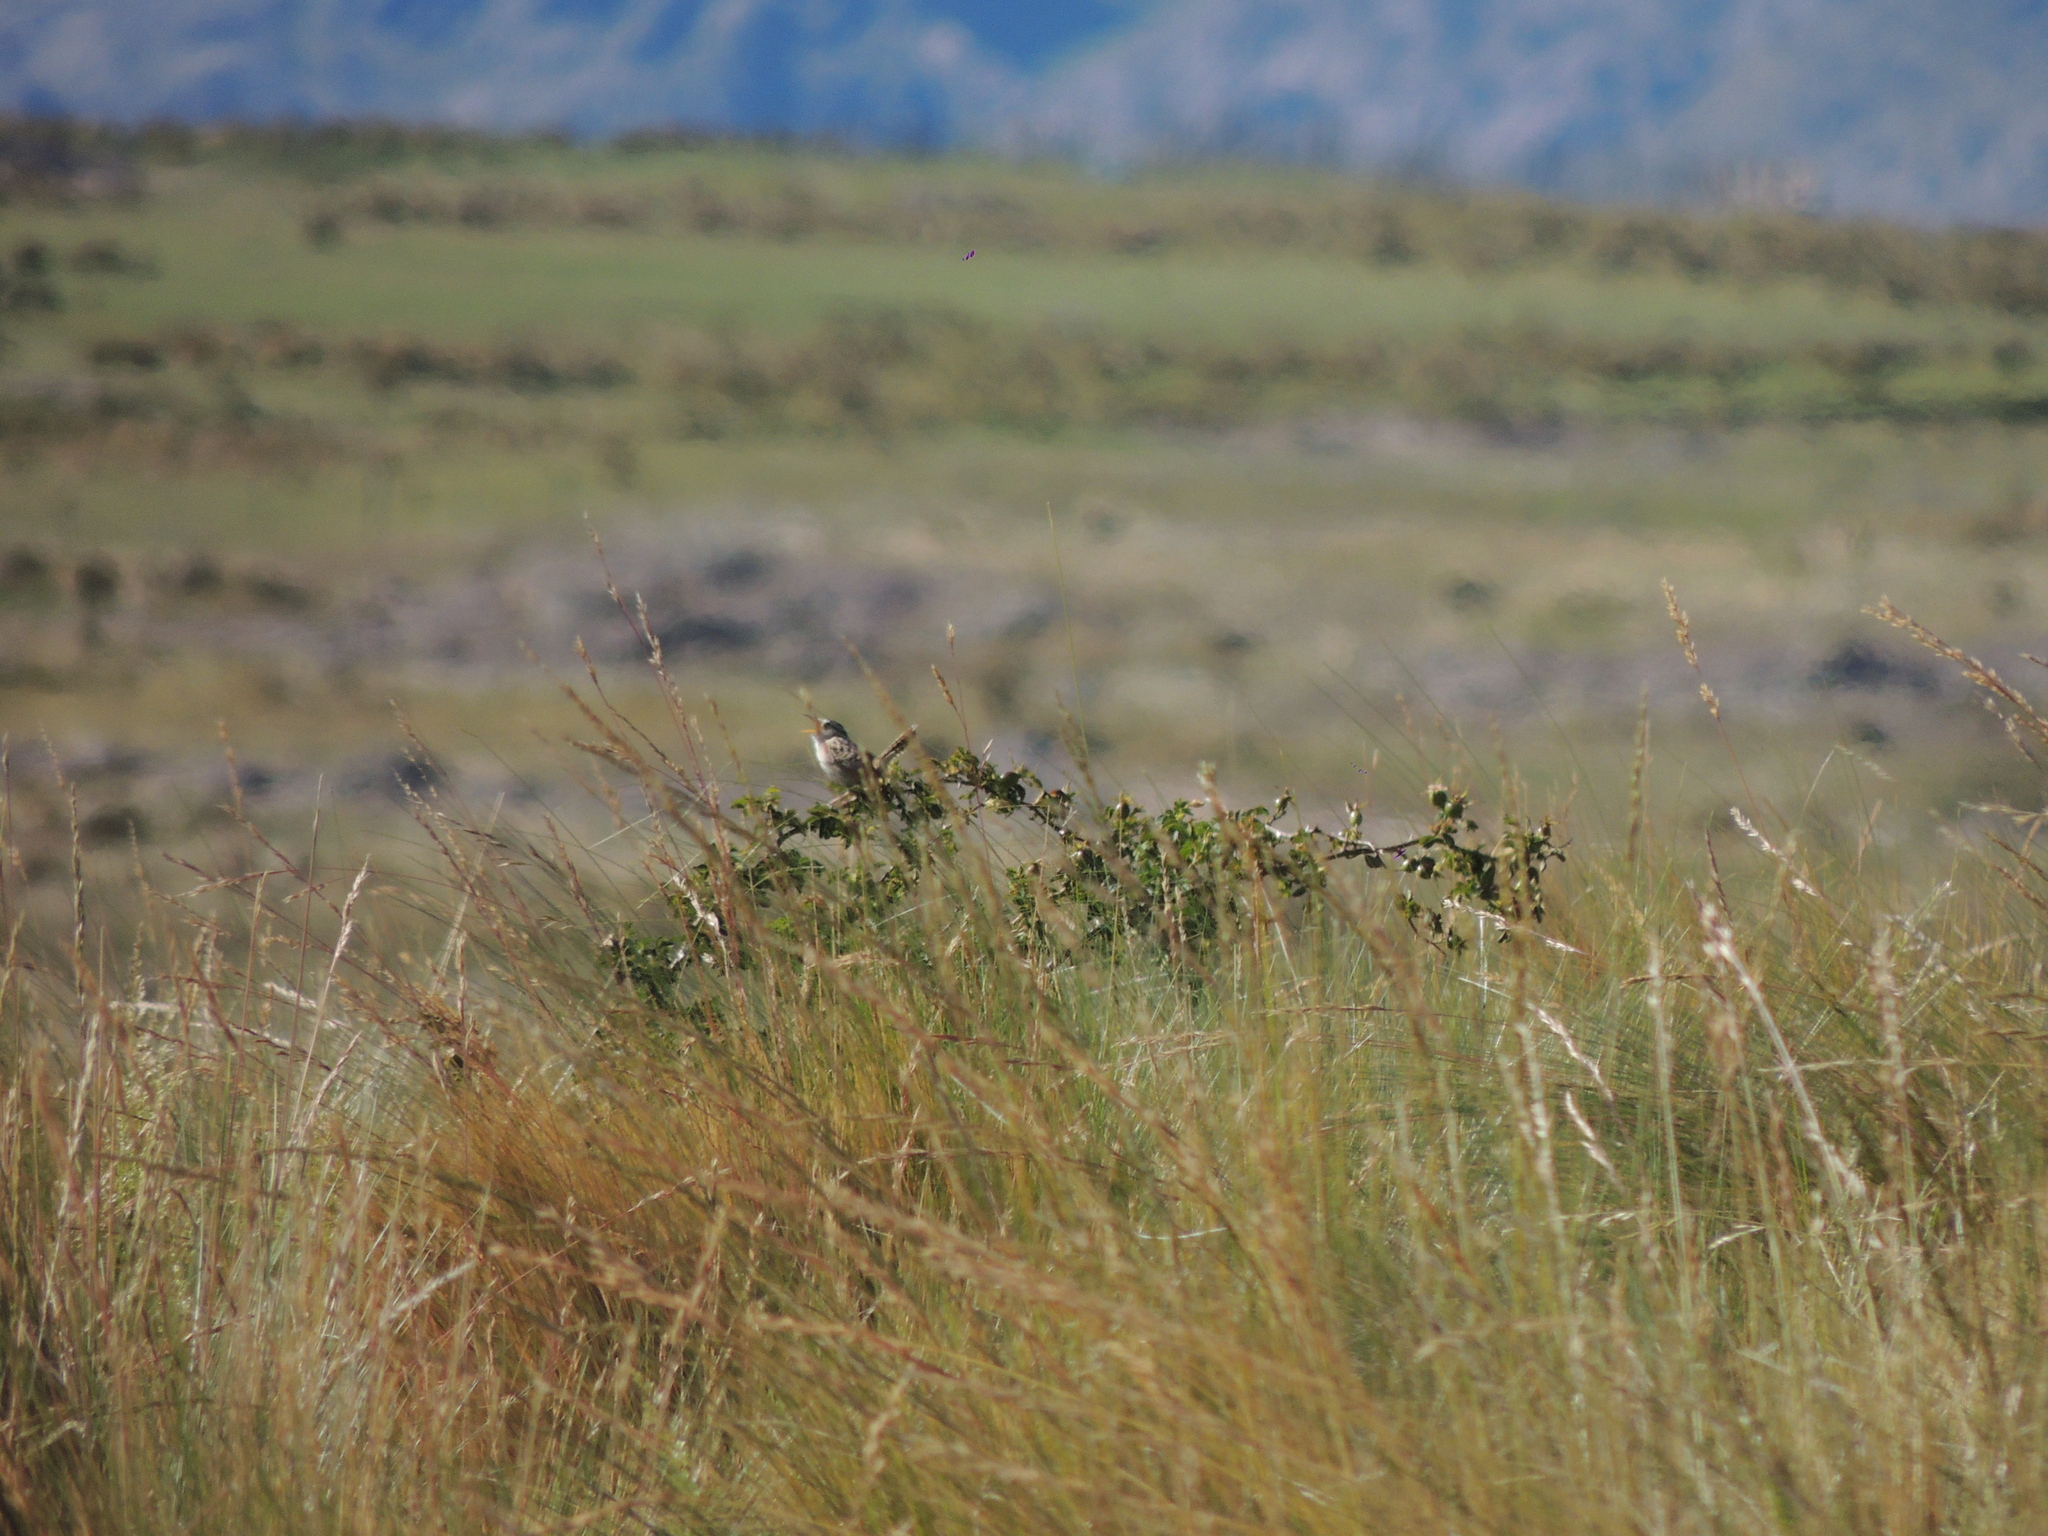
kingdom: Animalia
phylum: Chordata
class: Aves
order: Passeriformes
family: Troglodytidae
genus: Cistothorus
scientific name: Cistothorus platensis
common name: Sedge wren
